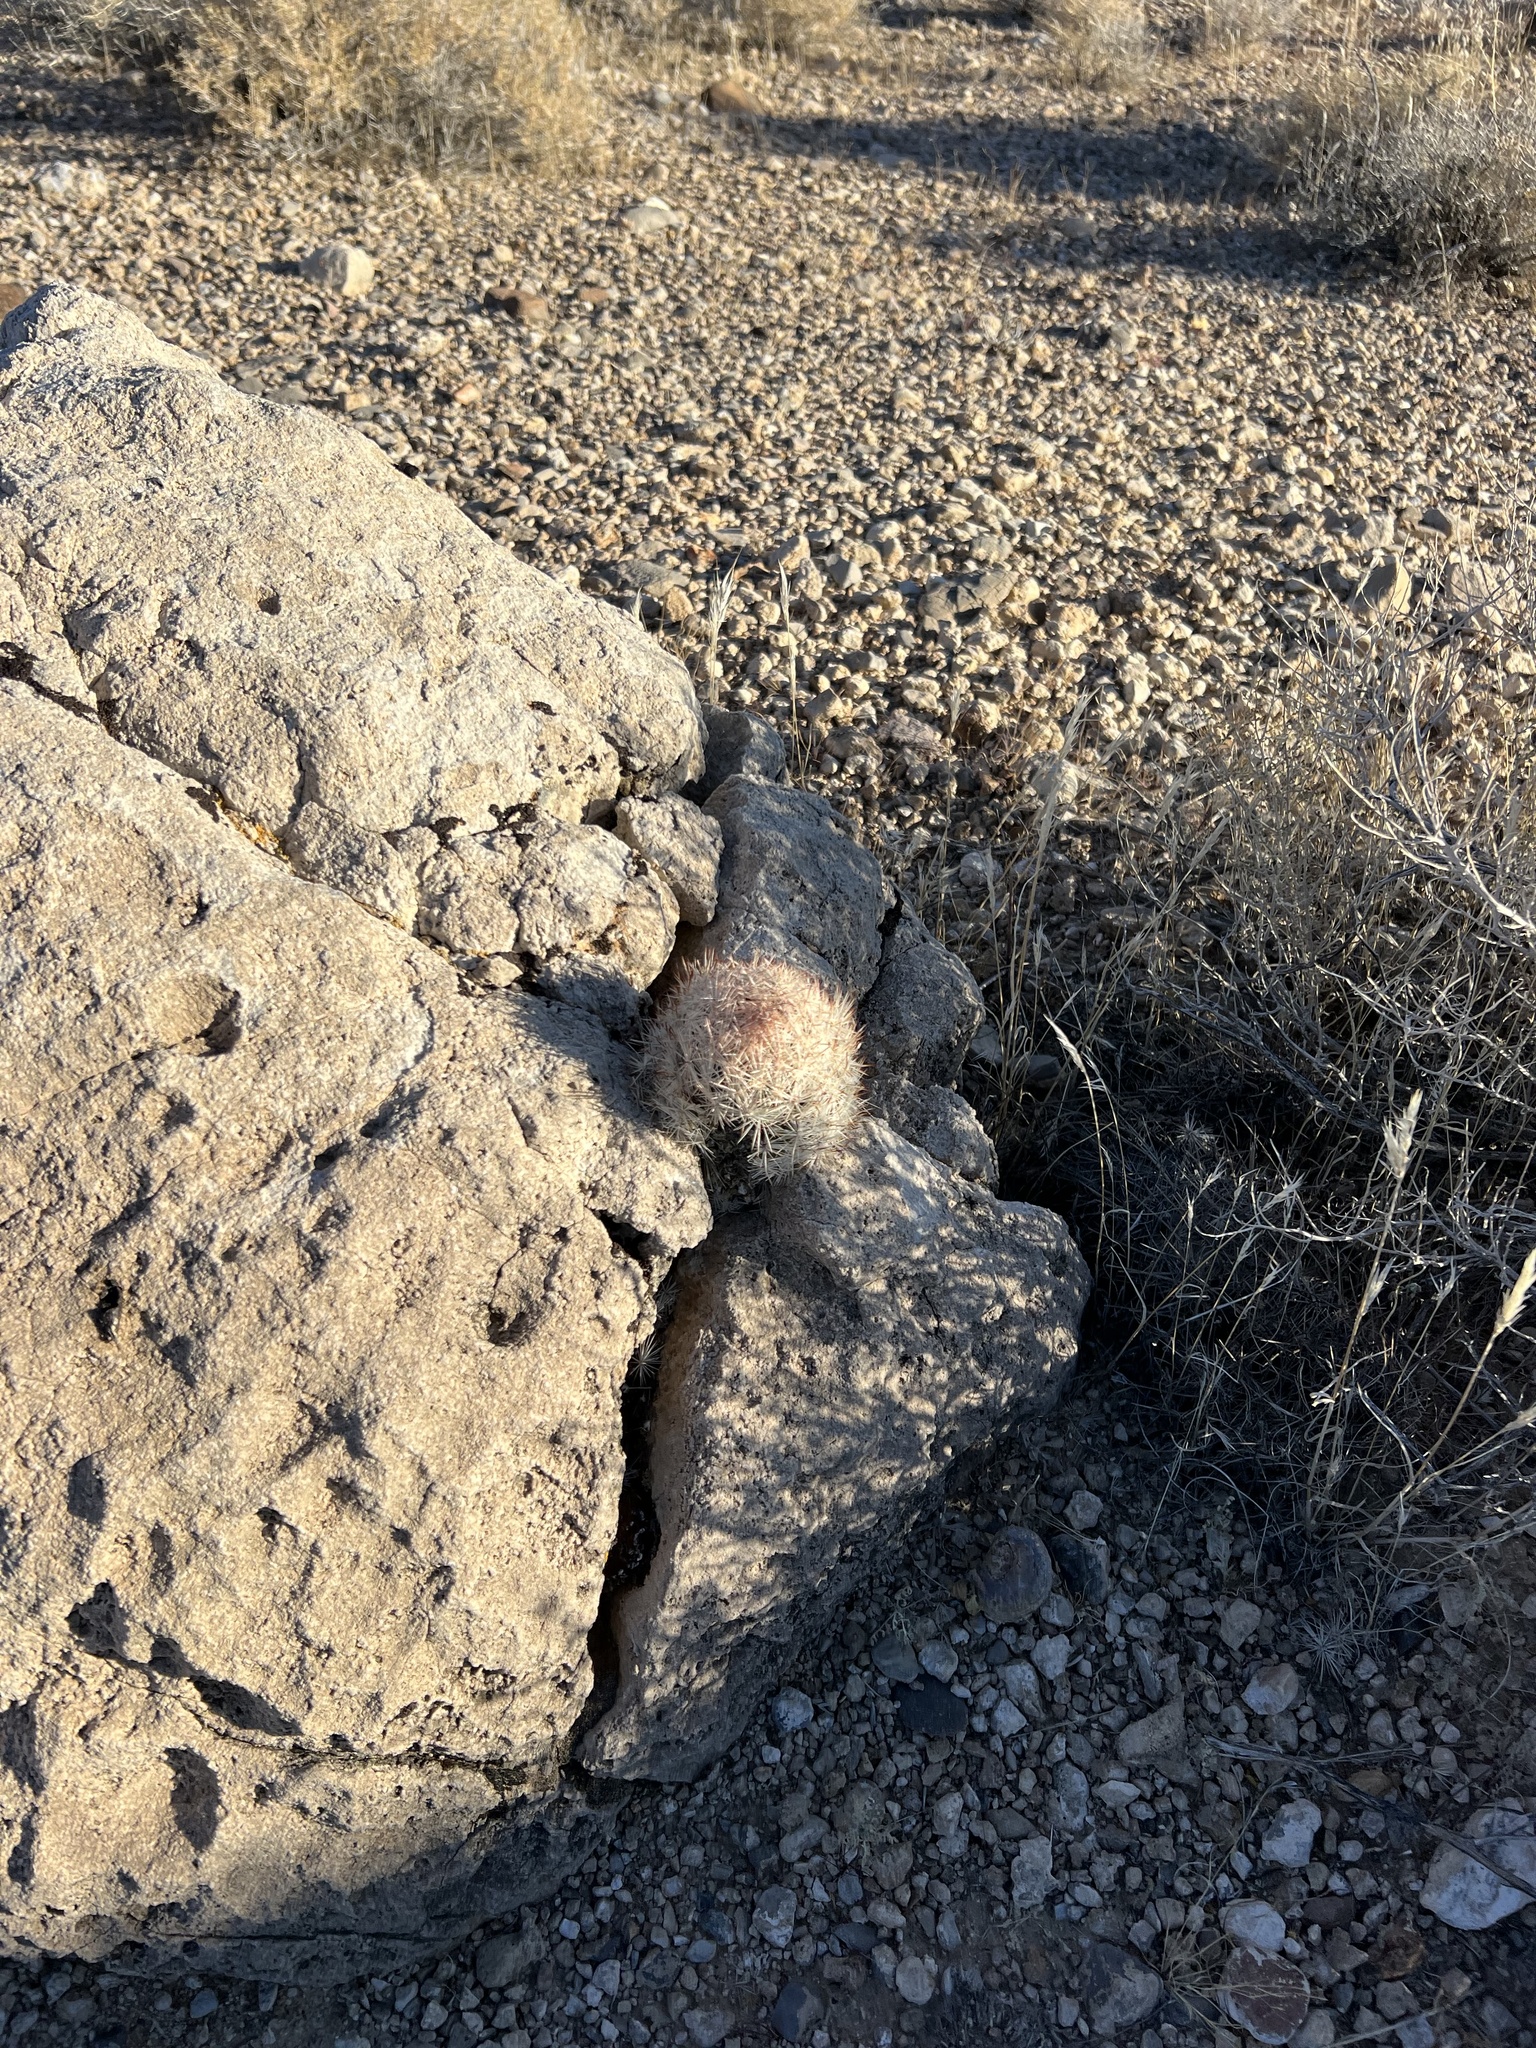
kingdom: Plantae
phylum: Tracheophyta
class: Magnoliopsida
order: Caryophyllales
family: Cactaceae
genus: Pelecyphora
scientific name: Pelecyphora dasyacantha
